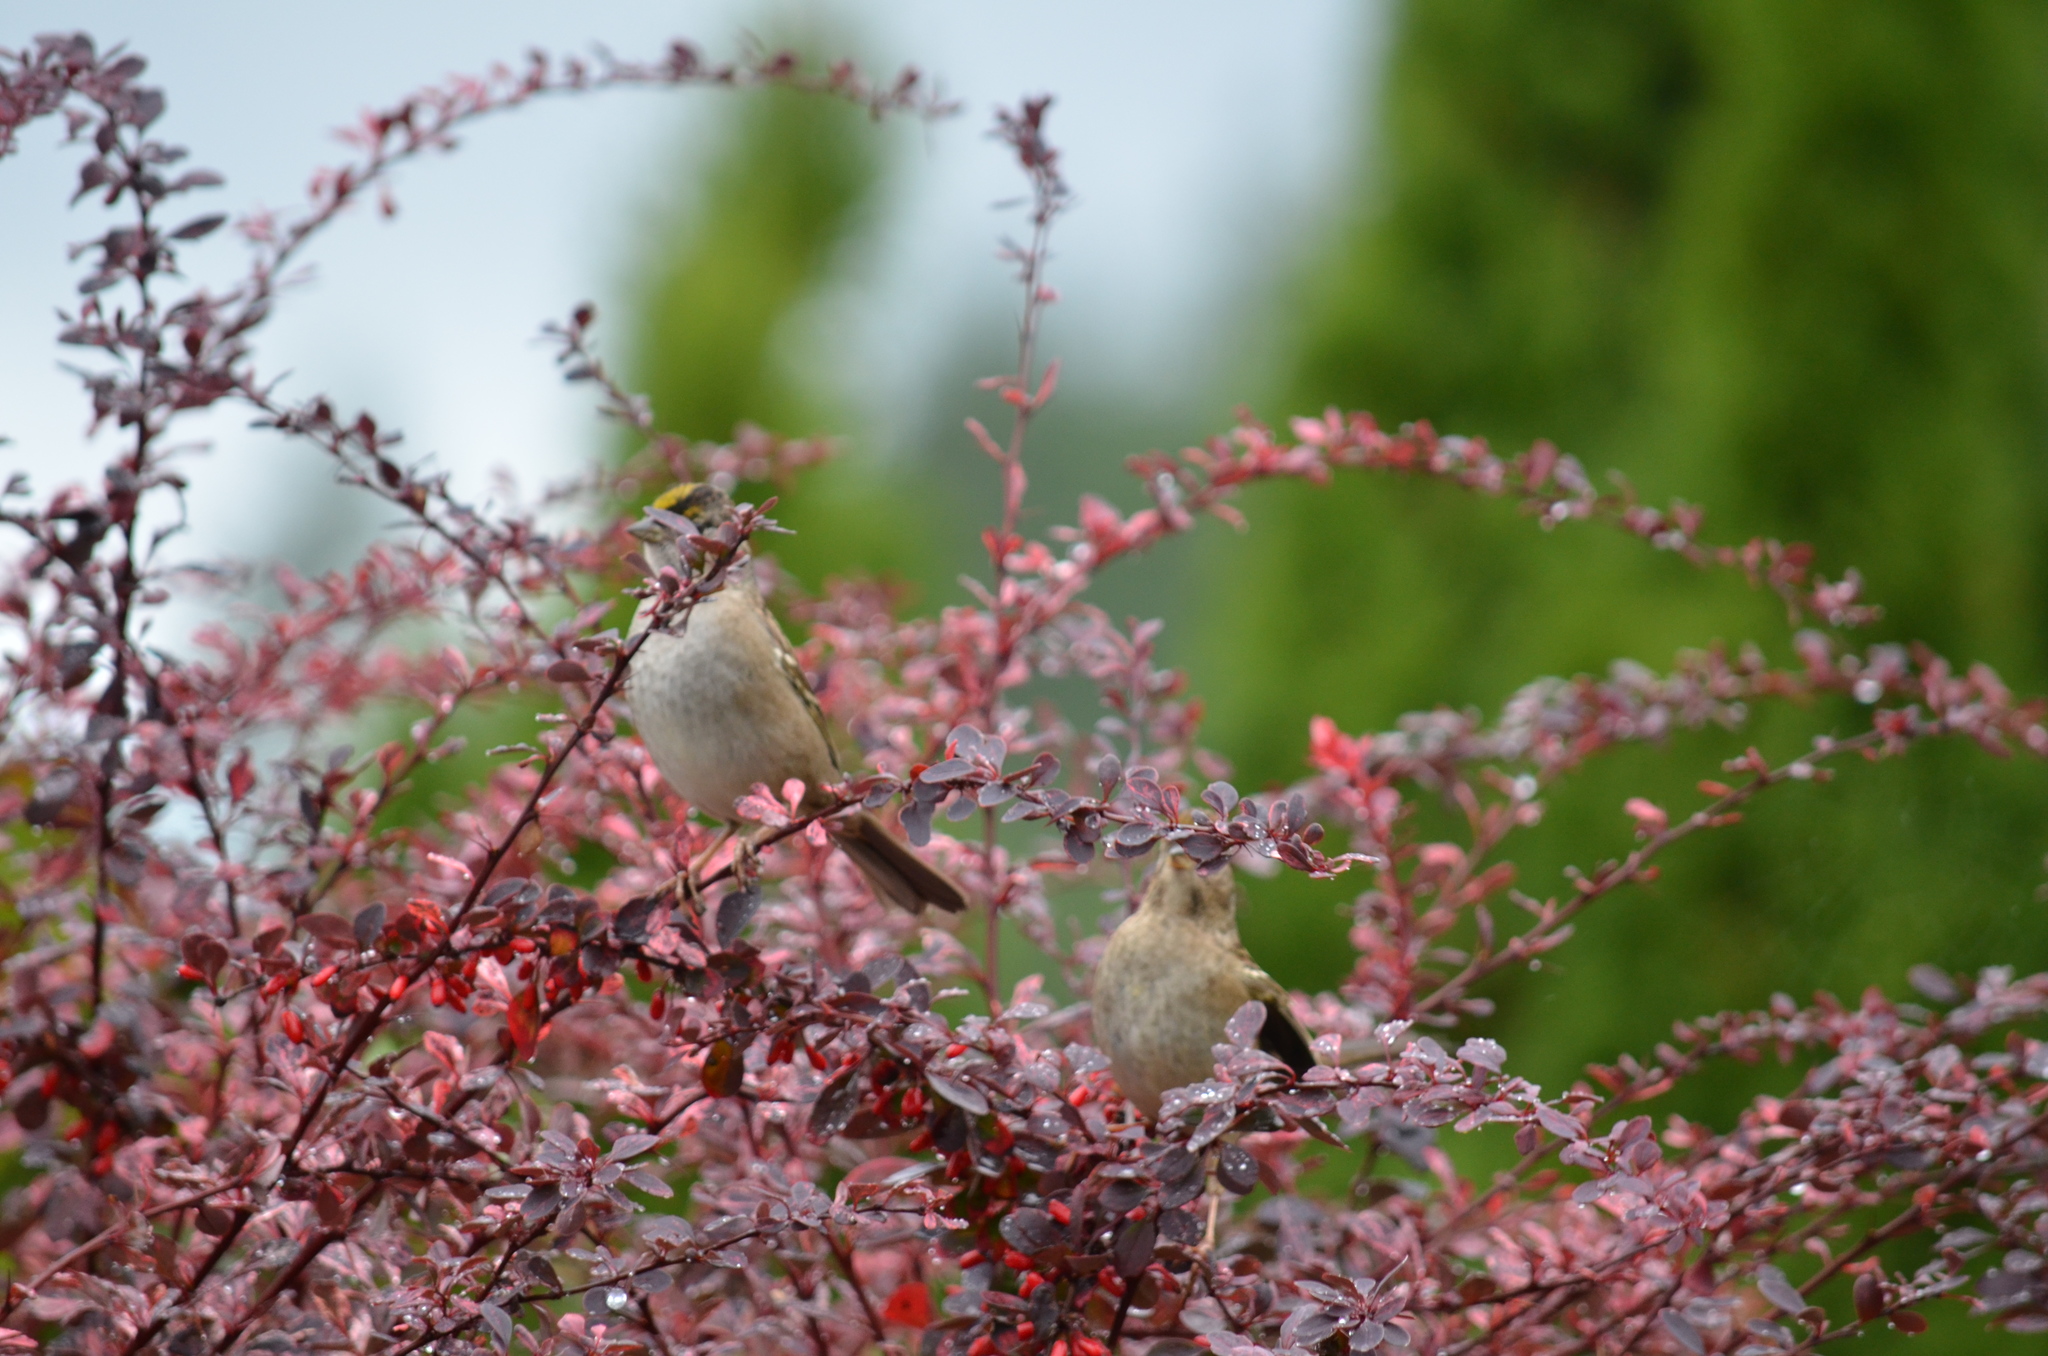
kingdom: Animalia
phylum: Chordata
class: Aves
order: Passeriformes
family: Passerellidae
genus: Zonotrichia
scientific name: Zonotrichia atricapilla
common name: Golden-crowned sparrow
